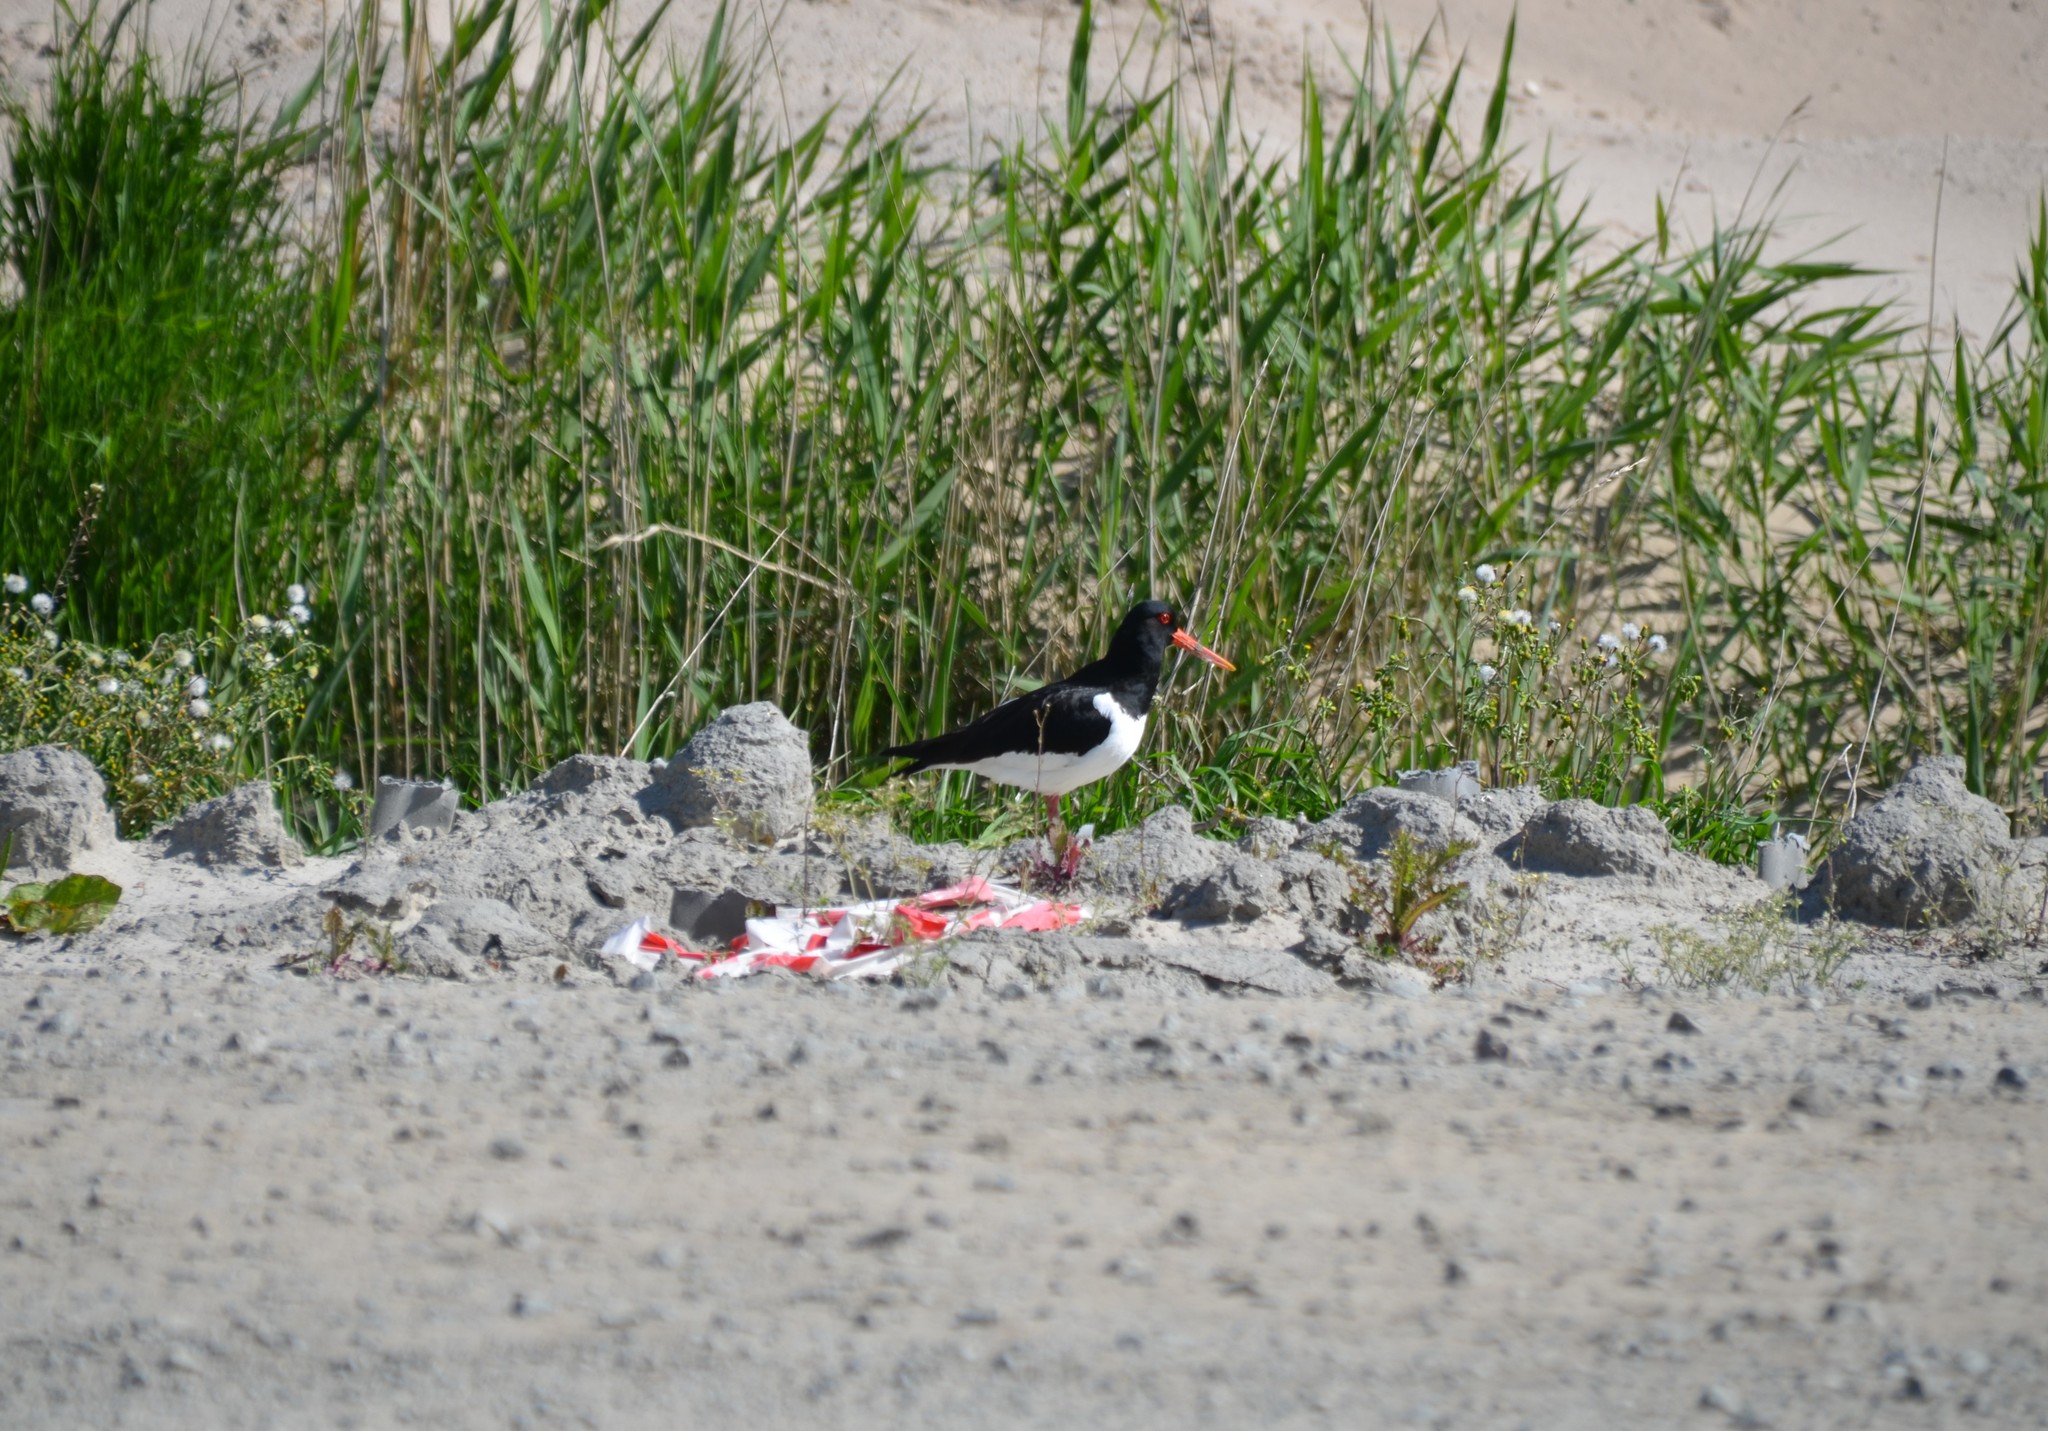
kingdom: Animalia
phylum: Chordata
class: Aves
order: Charadriiformes
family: Haematopodidae
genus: Haematopus
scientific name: Haematopus ostralegus
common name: Eurasian oystercatcher
